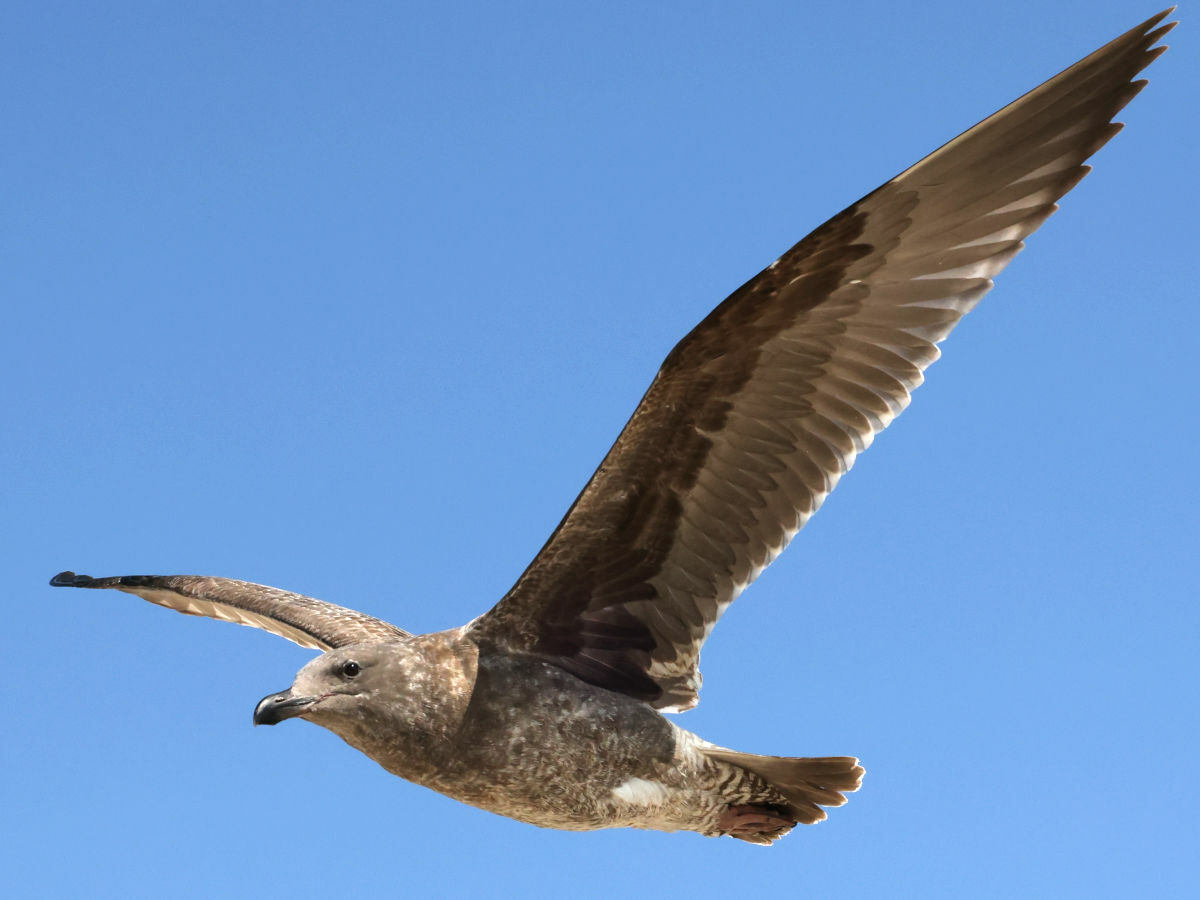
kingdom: Animalia
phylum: Chordata
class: Aves
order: Charadriiformes
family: Laridae
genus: Larus
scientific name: Larus occidentalis
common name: Western gull
